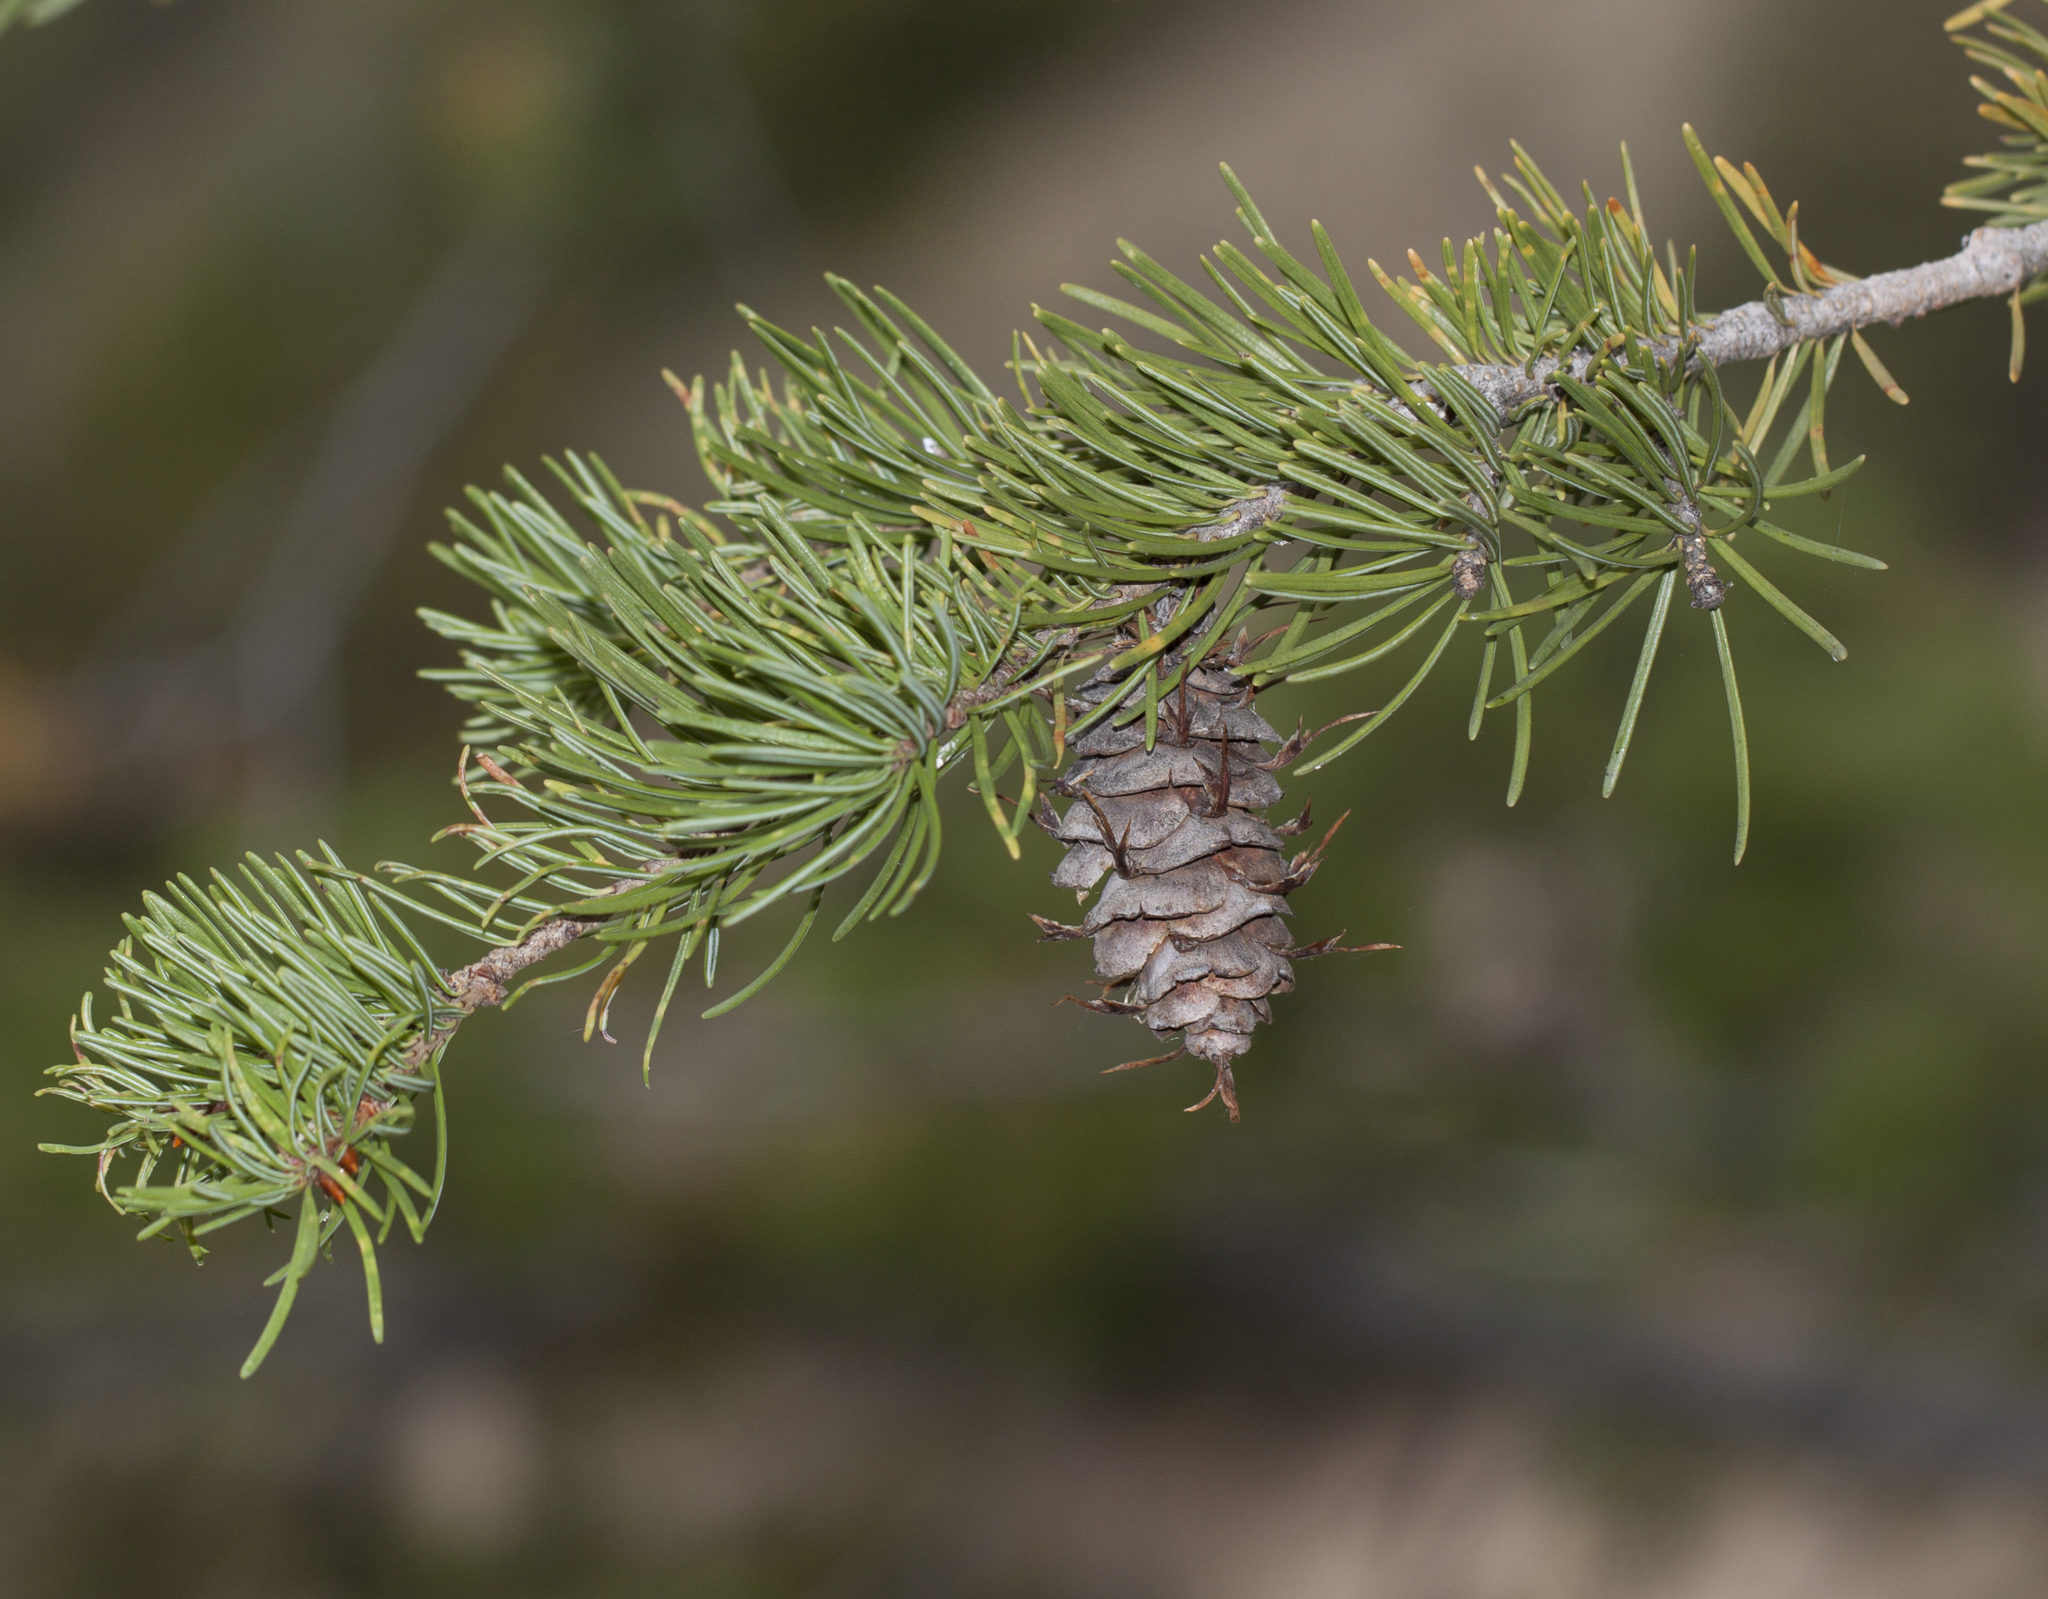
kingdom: Plantae
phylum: Tracheophyta
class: Pinopsida
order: Pinales
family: Pinaceae
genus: Pseudotsuga
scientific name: Pseudotsuga menziesii
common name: Douglas fir
